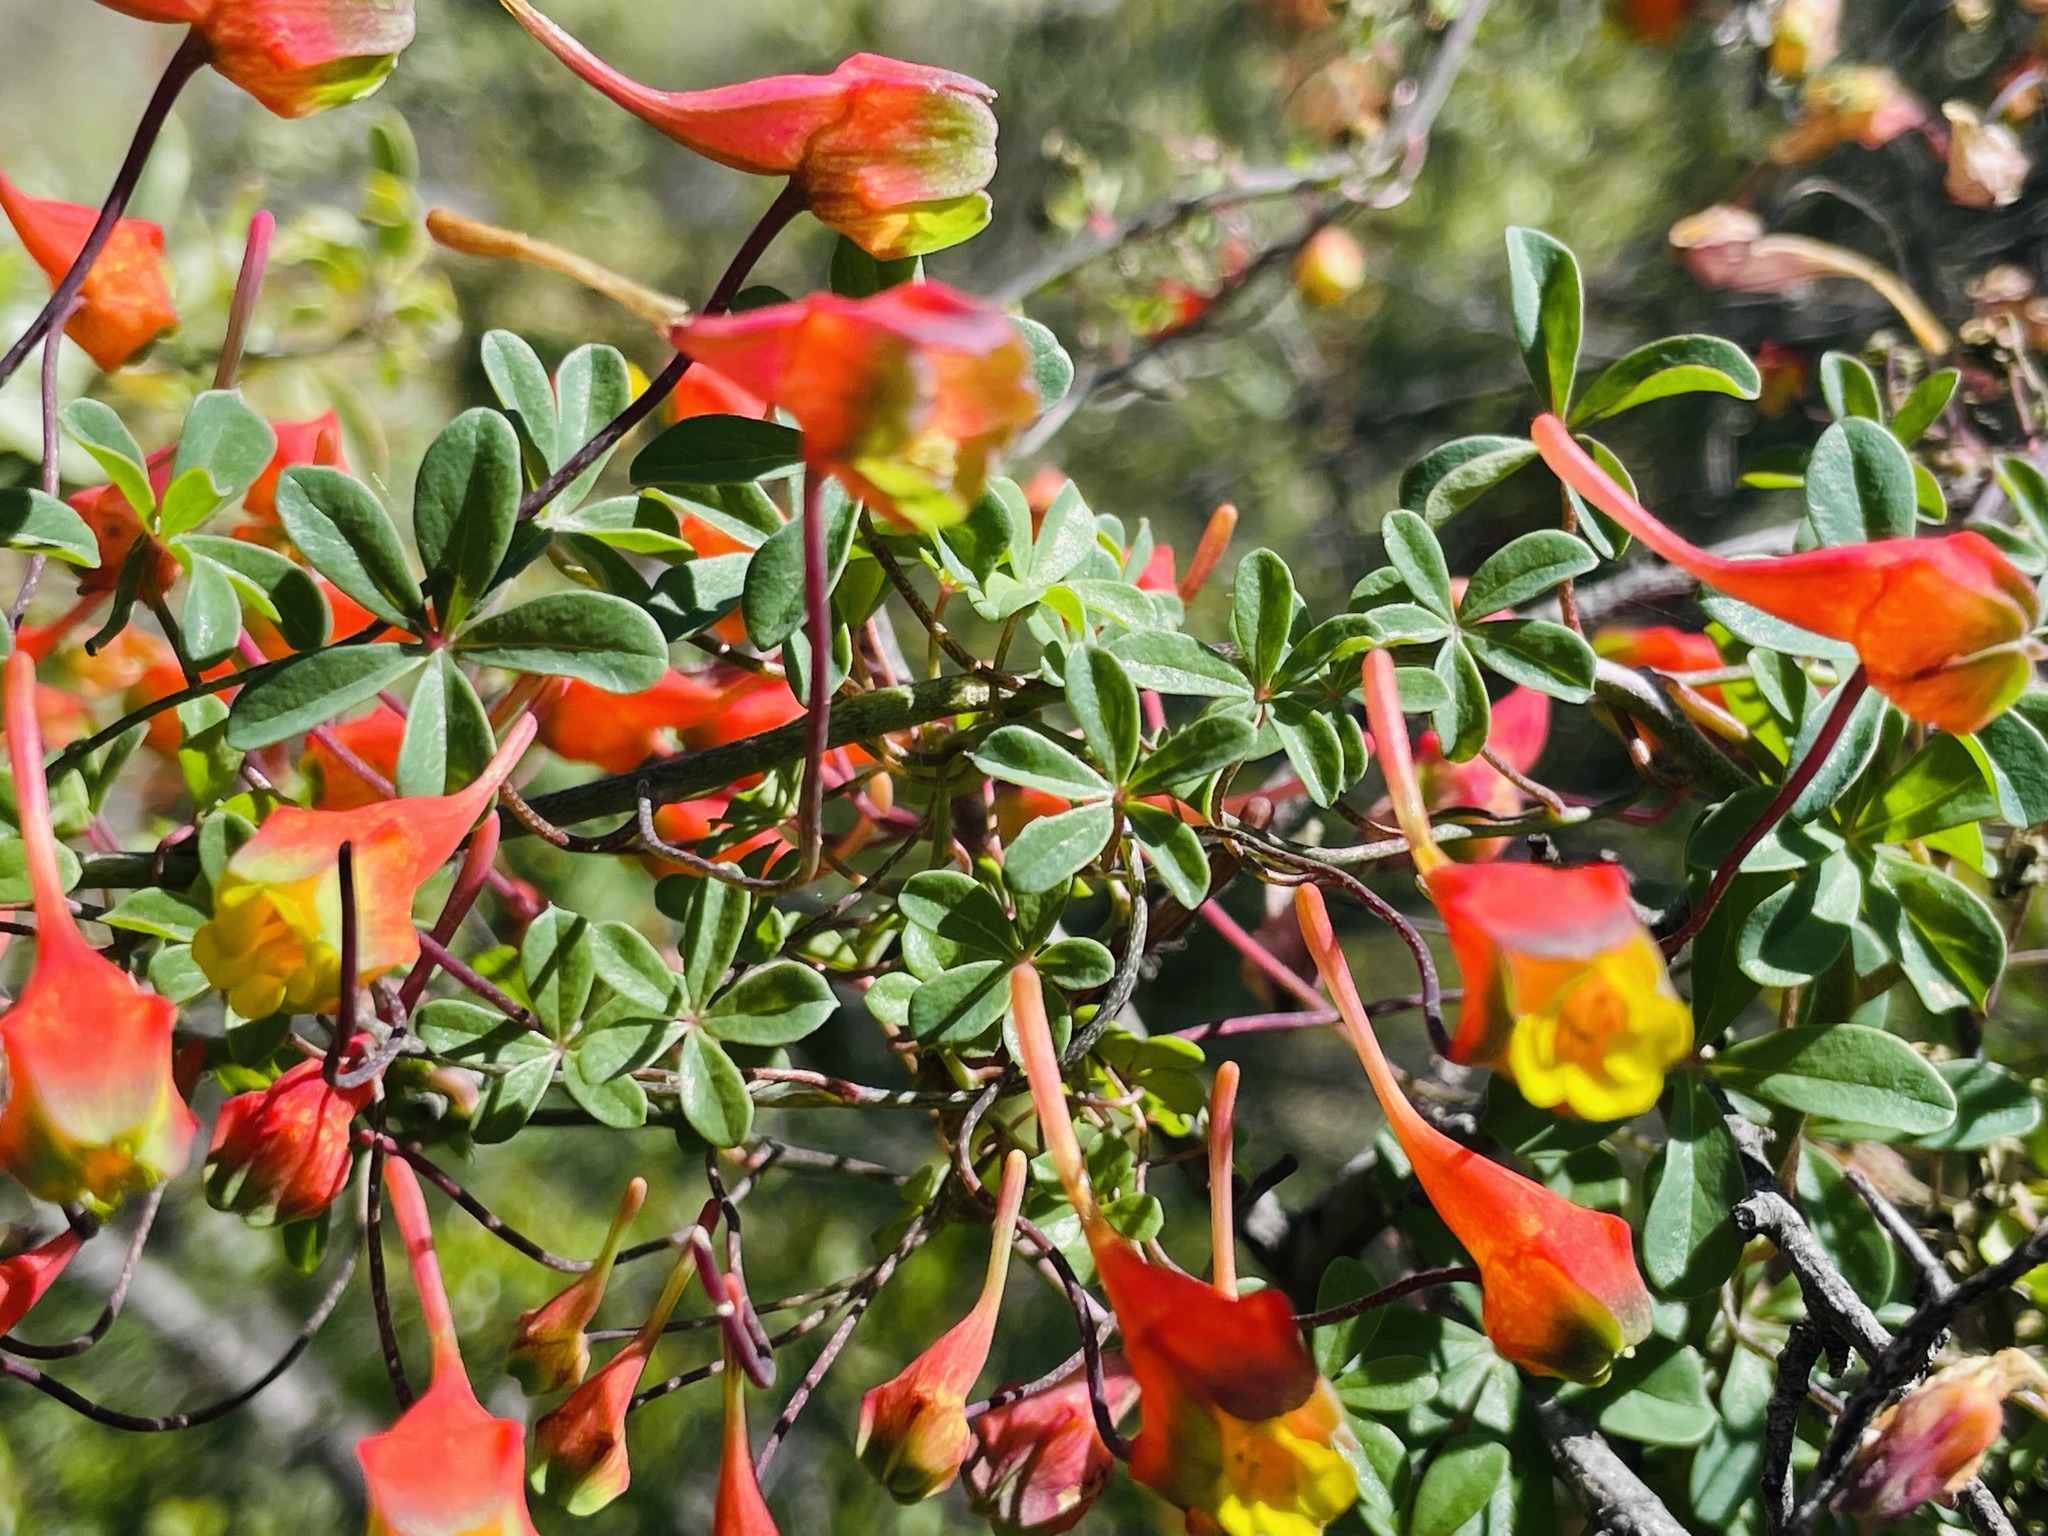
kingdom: Plantae
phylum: Tracheophyta
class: Magnoliopsida
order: Brassicales
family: Tropaeolaceae
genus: Tropaeolum
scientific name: Tropaeolum tricolor
